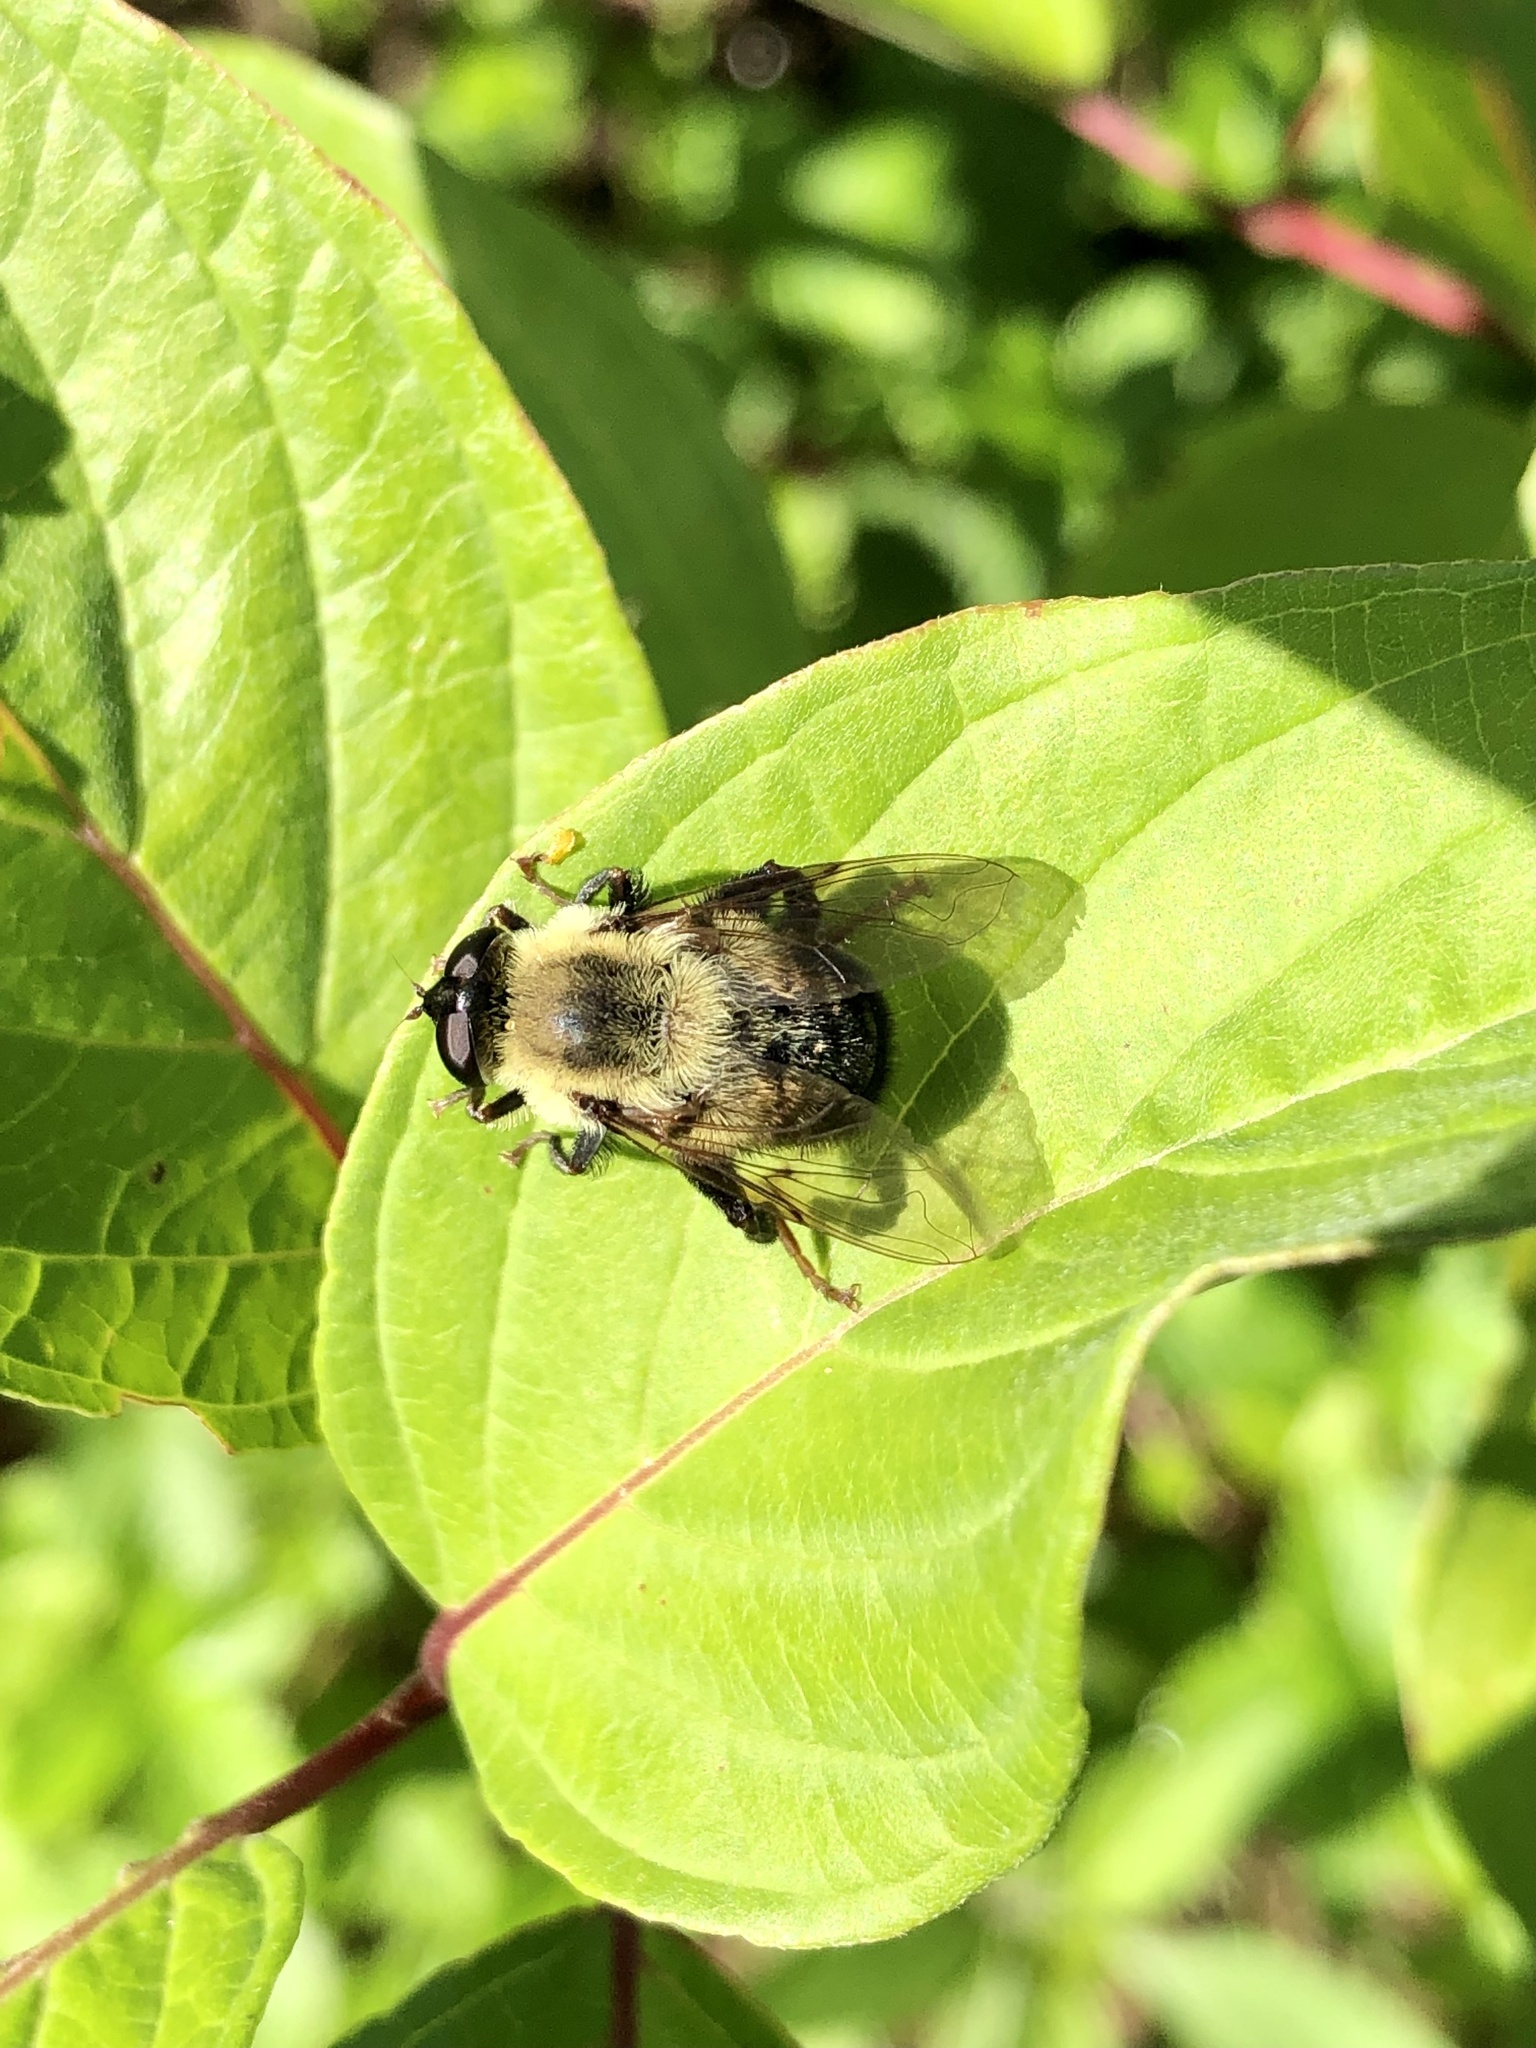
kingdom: Animalia
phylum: Arthropoda
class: Insecta
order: Diptera
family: Syrphidae
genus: Imatisma
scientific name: Imatisma posticata
